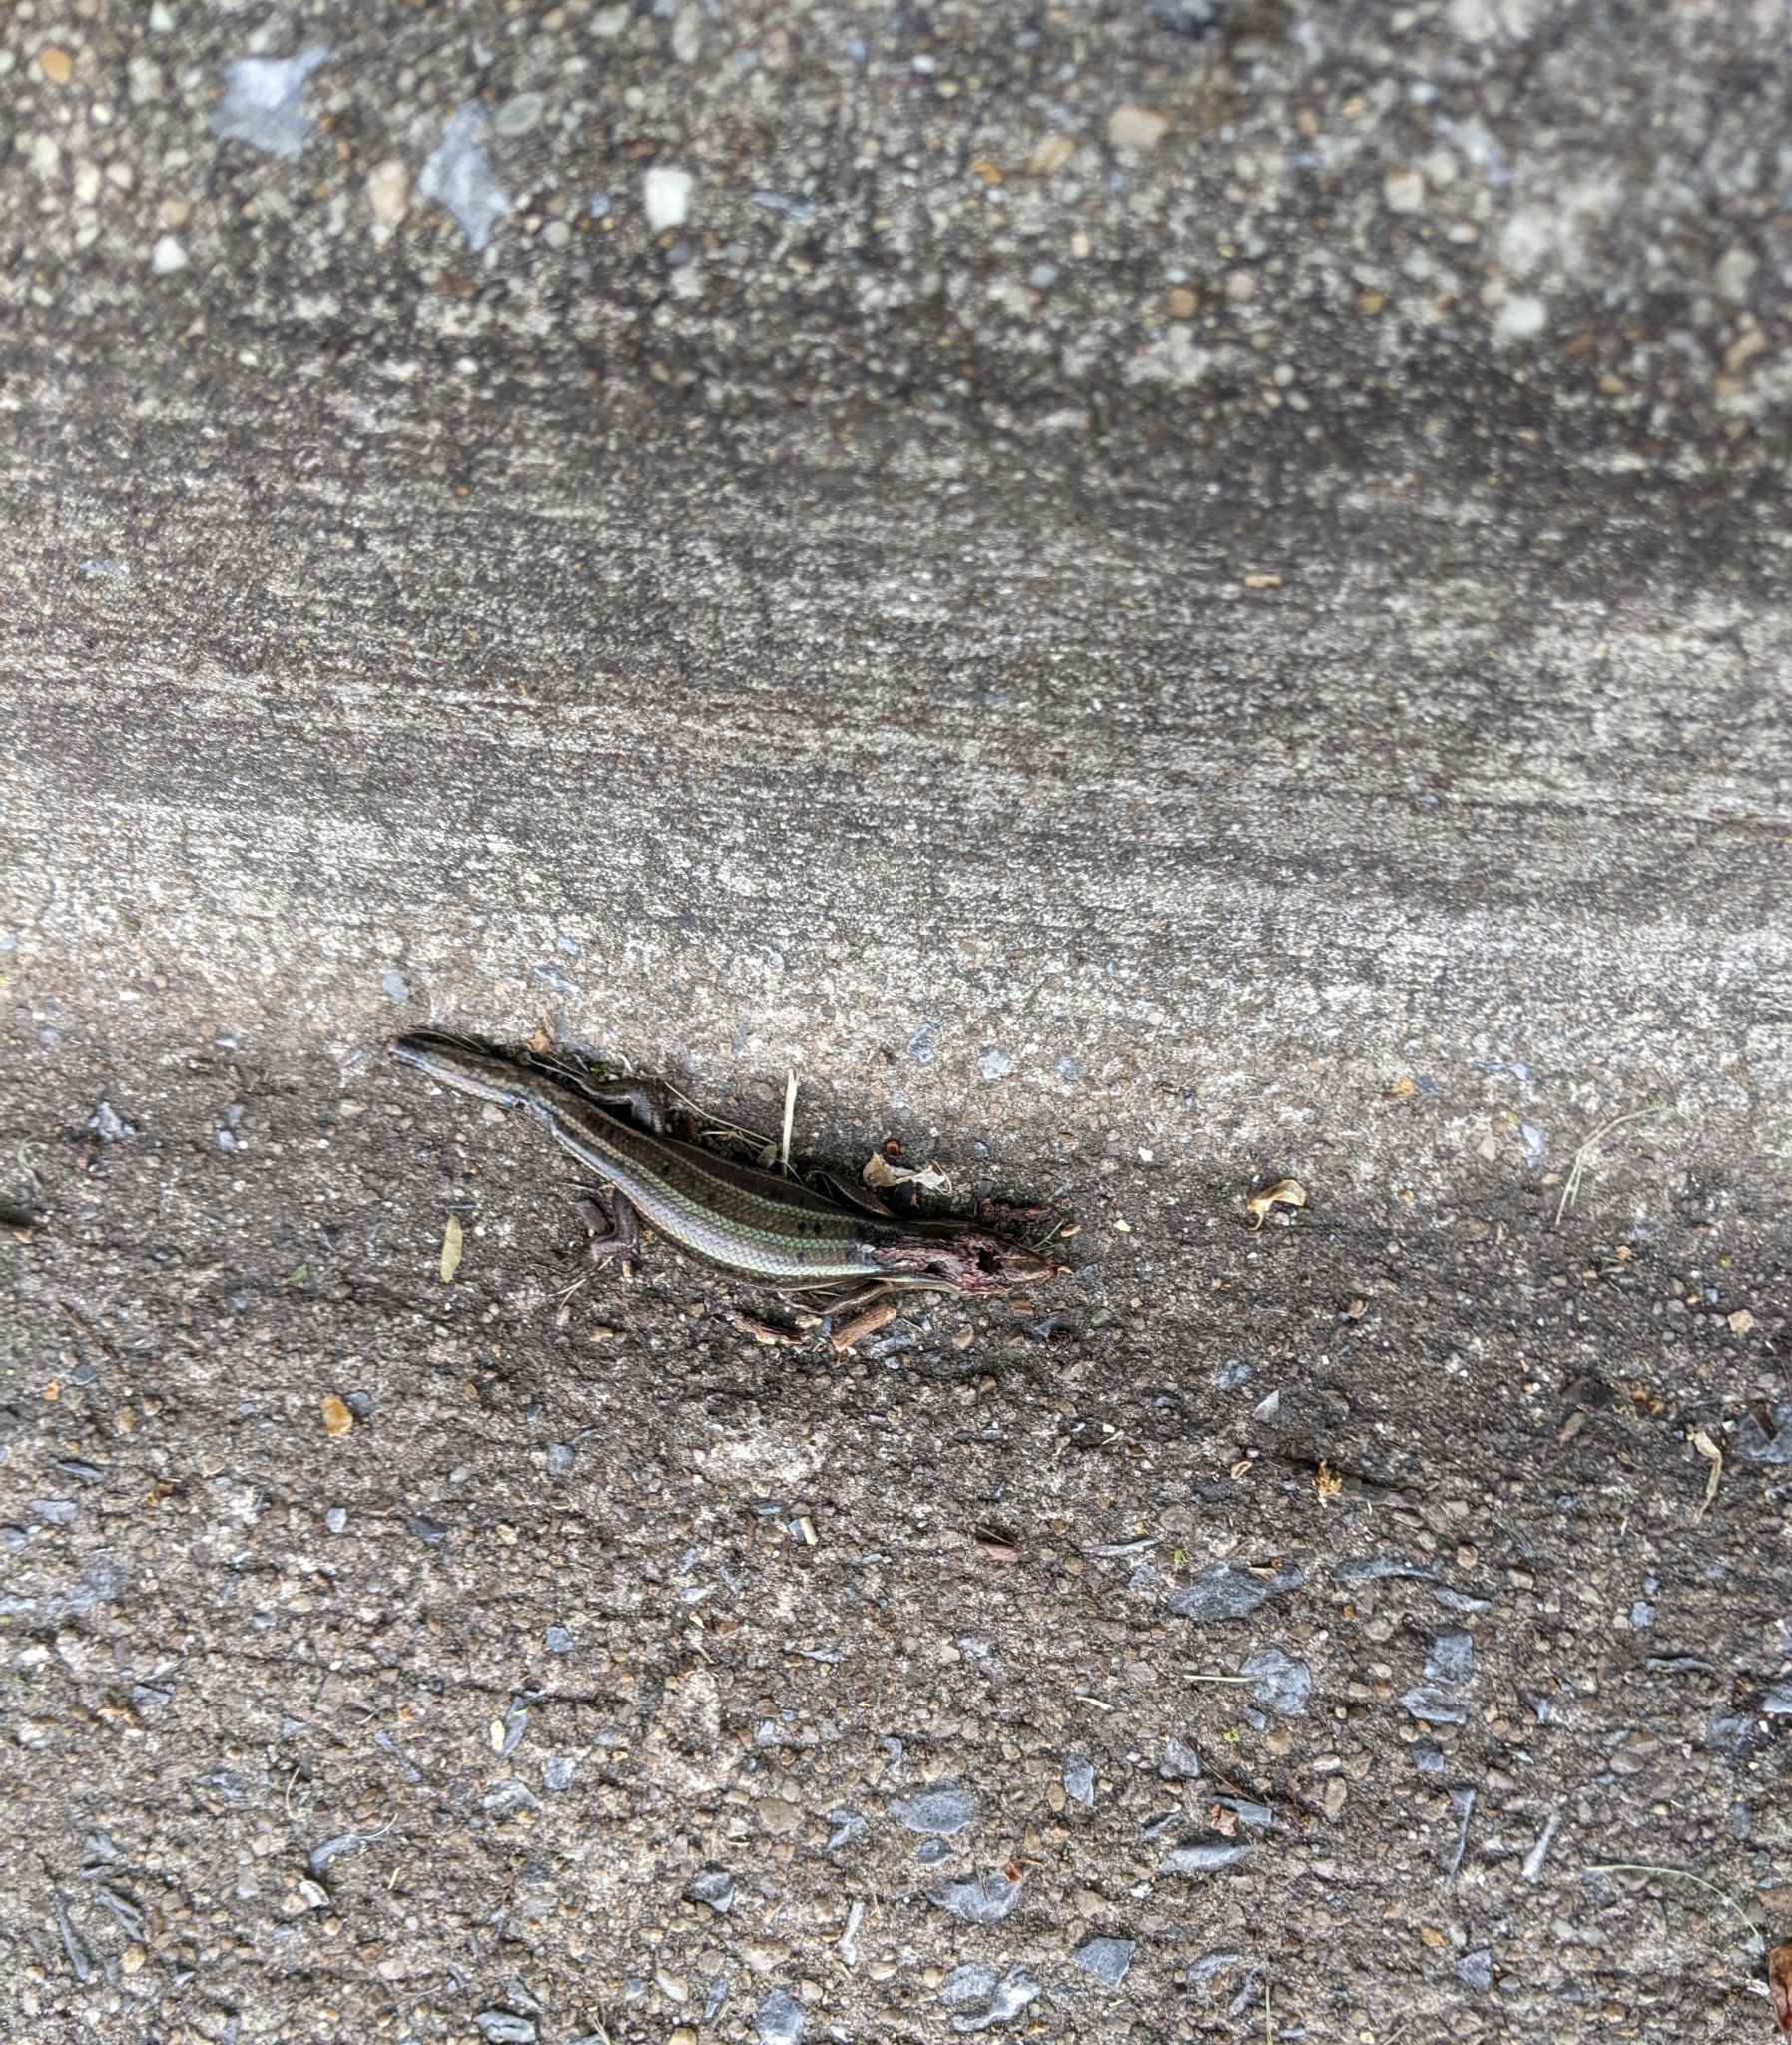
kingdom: Animalia
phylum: Chordata
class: Squamata
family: Scincidae
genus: Plestiodon
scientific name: Plestiodon fasciatus
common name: Five-lined skink
